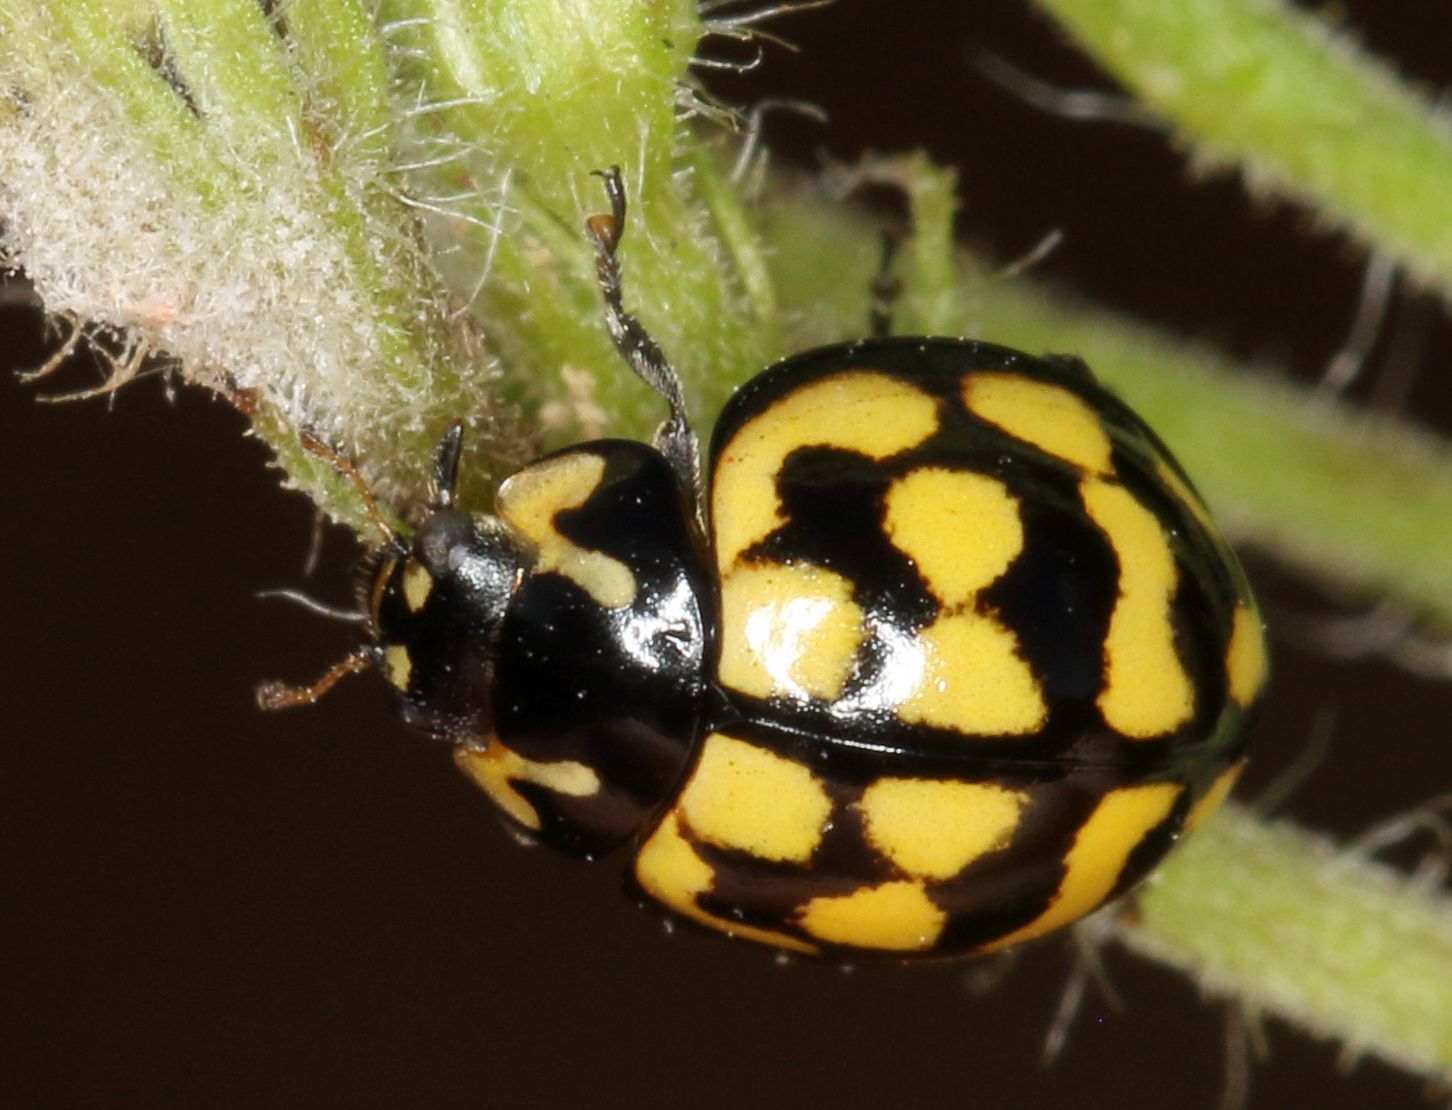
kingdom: Animalia
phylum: Arthropoda
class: Insecta
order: Coleoptera
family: Coccinellidae
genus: Cheilomenes
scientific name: Cheilomenes lunata
